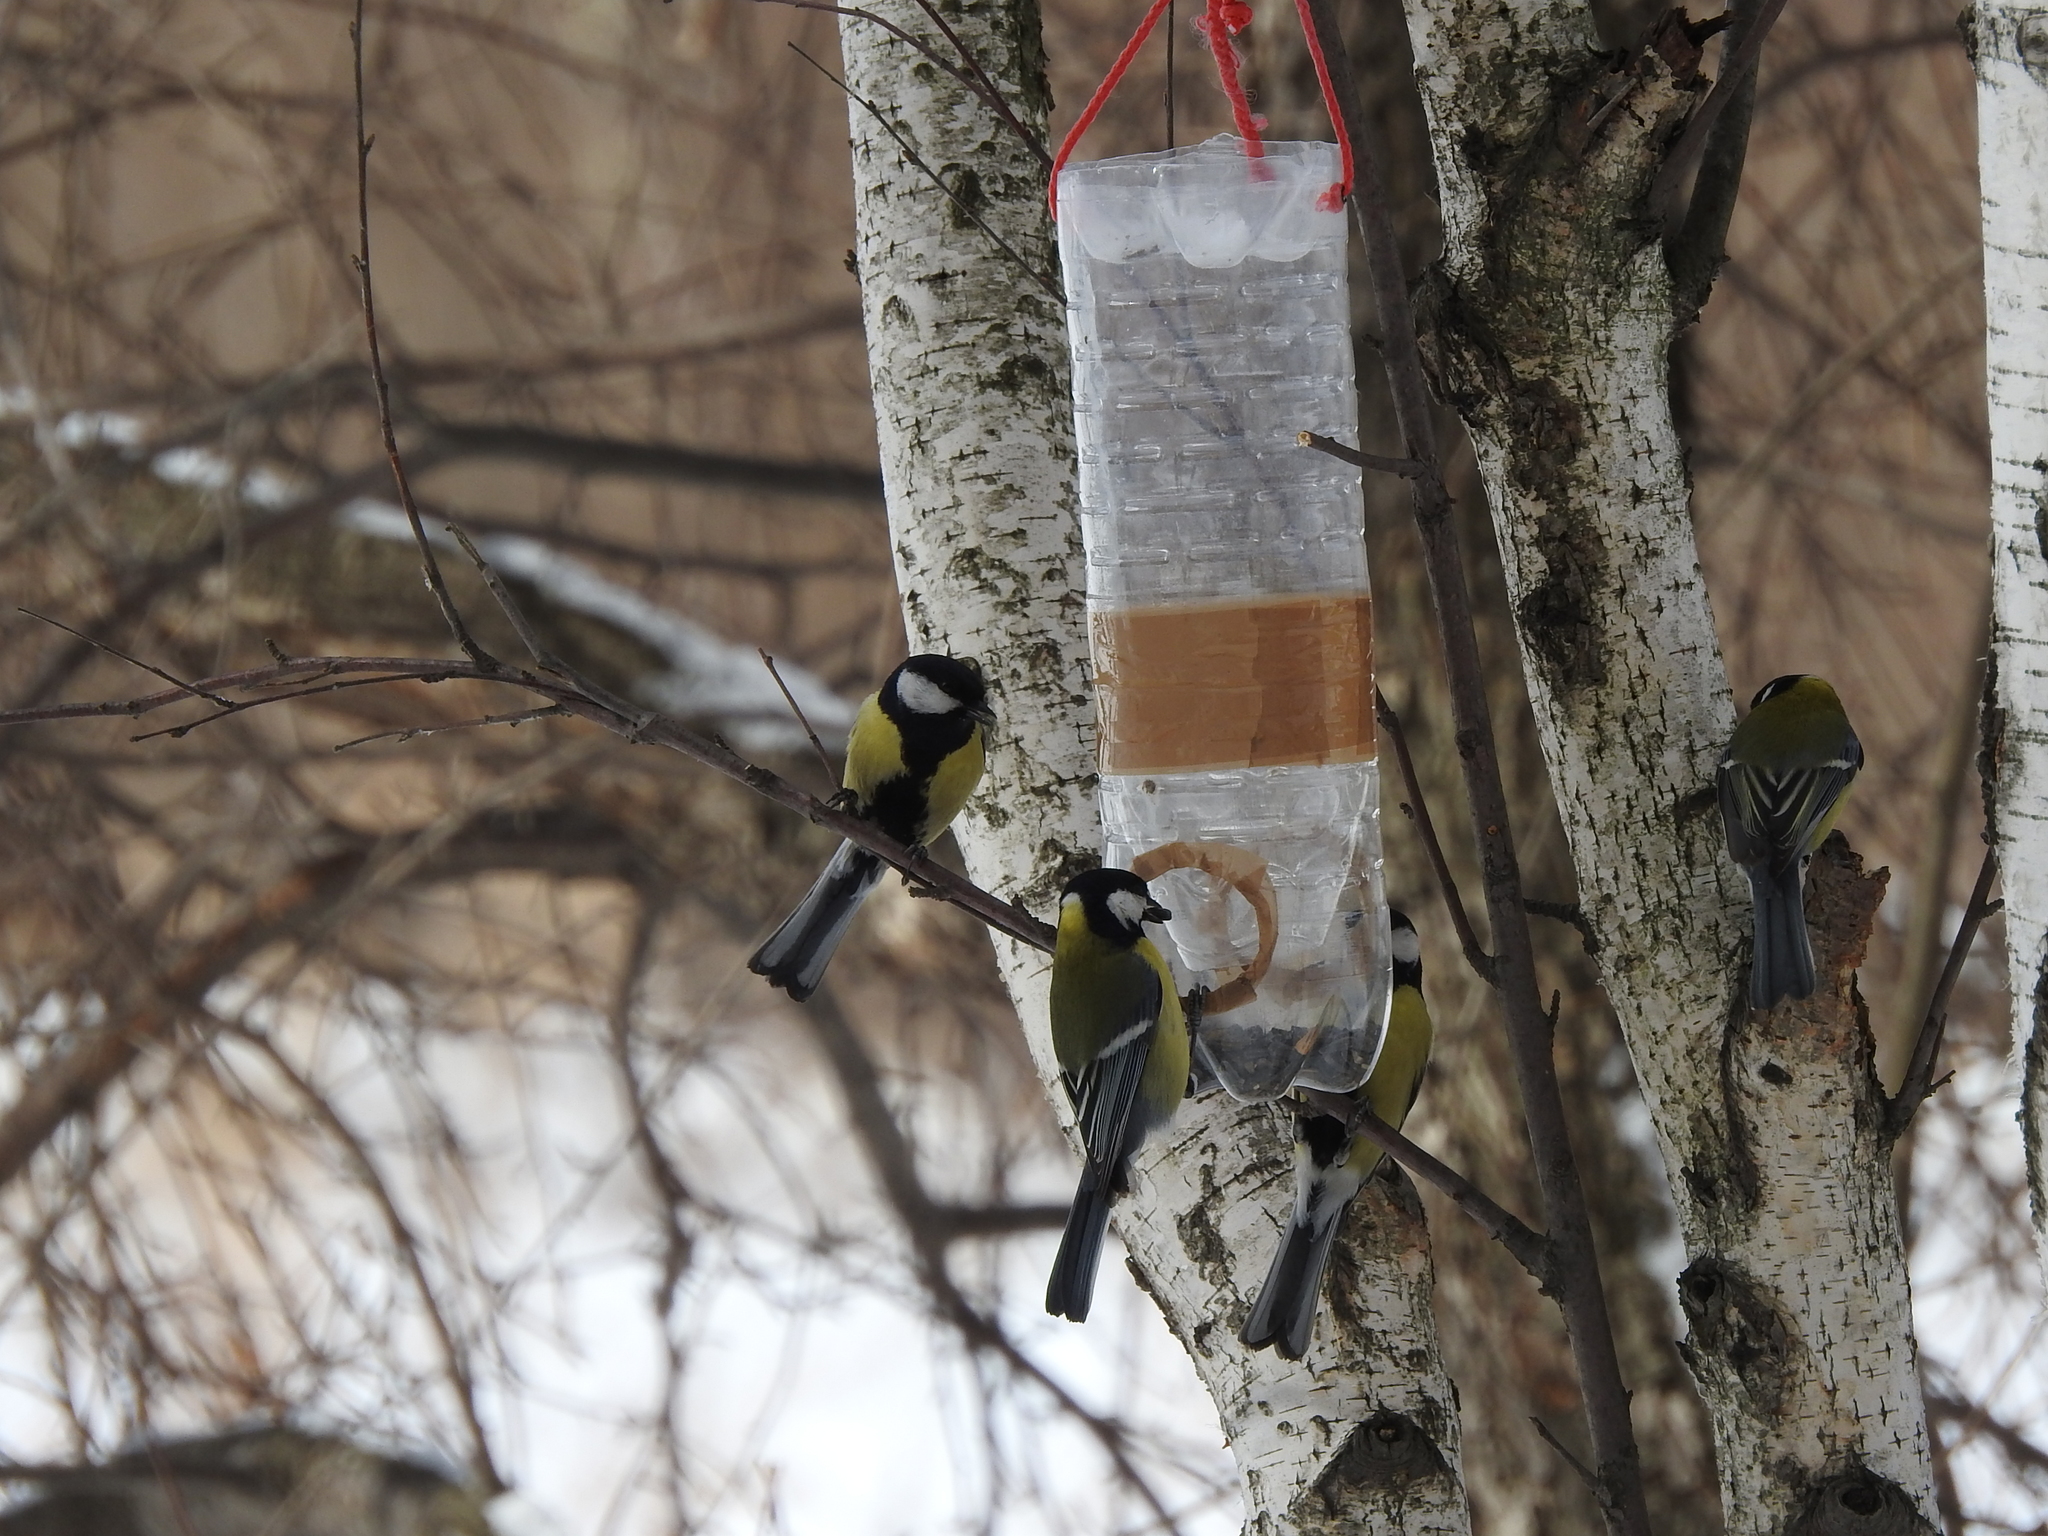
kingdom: Animalia
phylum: Chordata
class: Aves
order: Passeriformes
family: Paridae
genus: Parus
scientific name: Parus major
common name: Great tit
